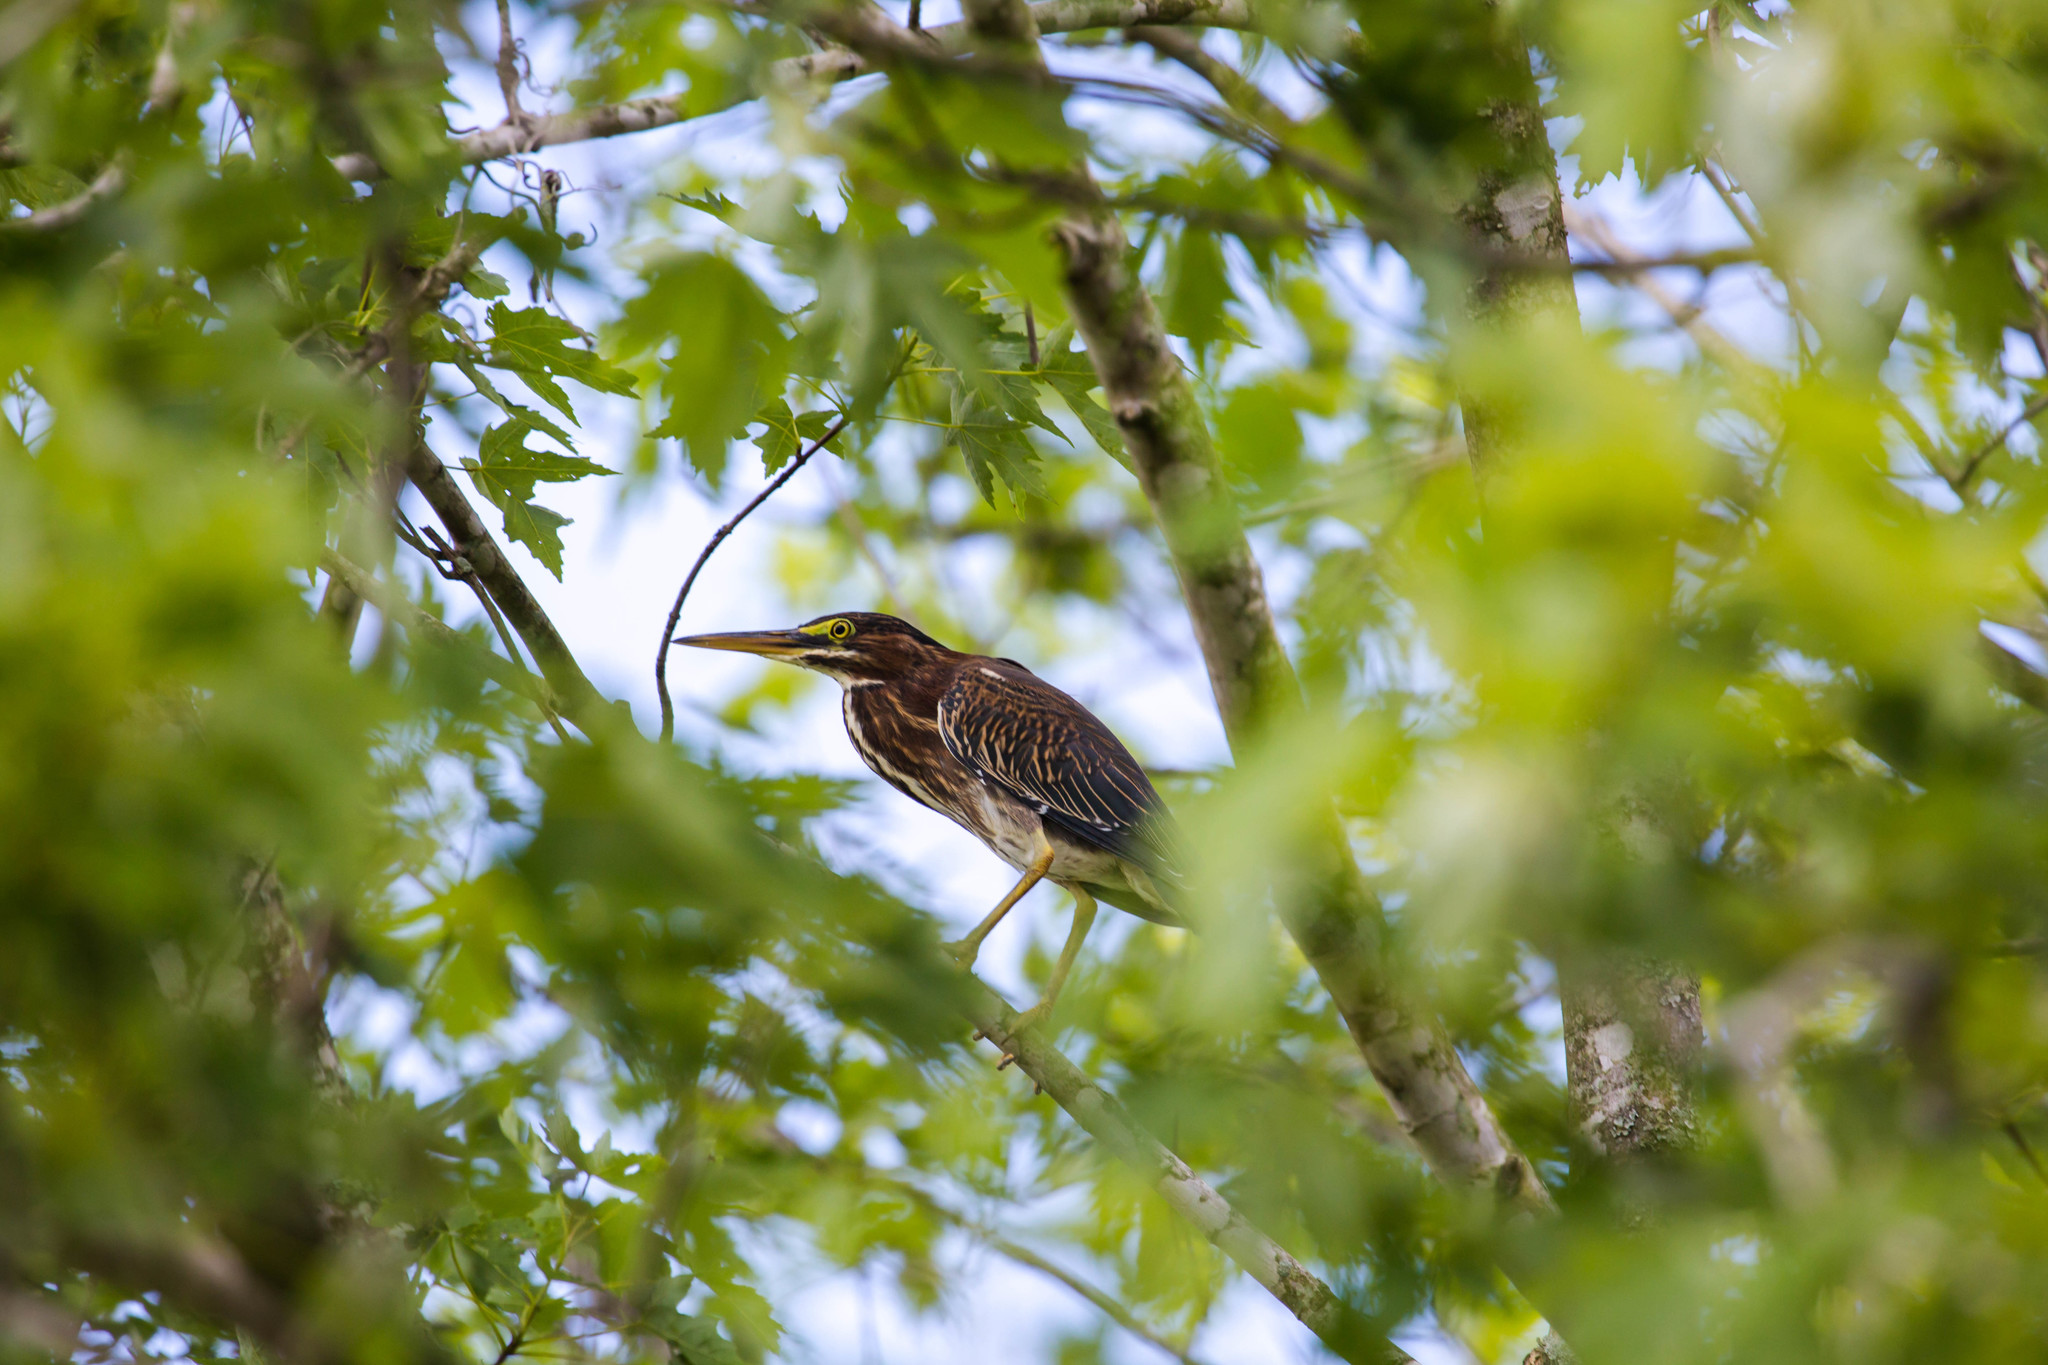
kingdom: Animalia
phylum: Chordata
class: Aves
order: Pelecaniformes
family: Ardeidae
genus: Butorides
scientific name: Butorides virescens
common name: Green heron
